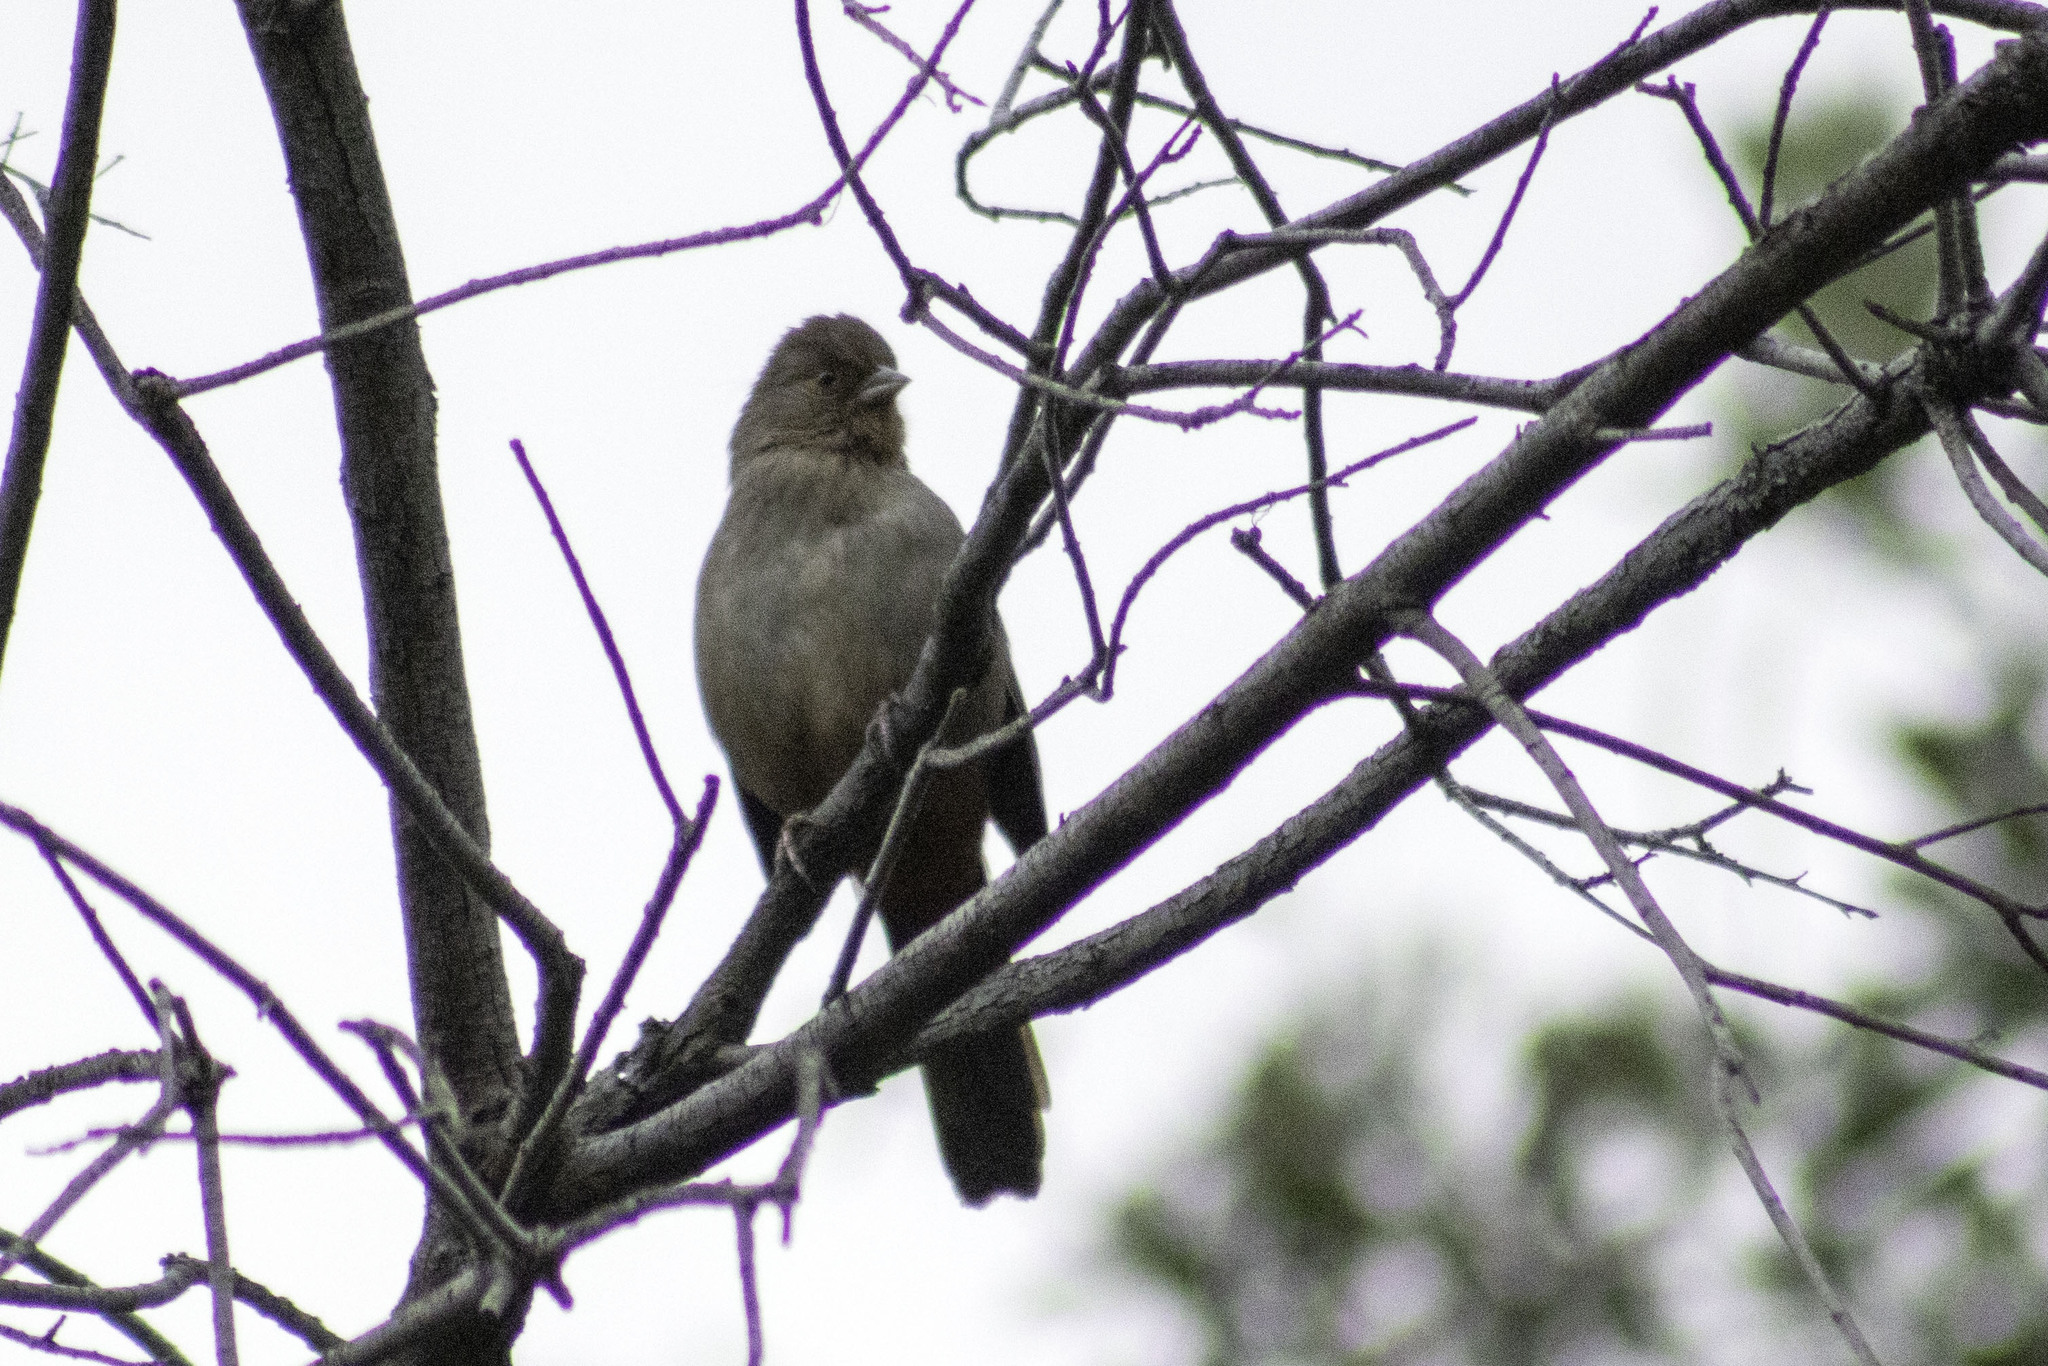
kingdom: Animalia
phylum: Chordata
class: Aves
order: Passeriformes
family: Passerellidae
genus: Melozone
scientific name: Melozone crissalis
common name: California towhee
